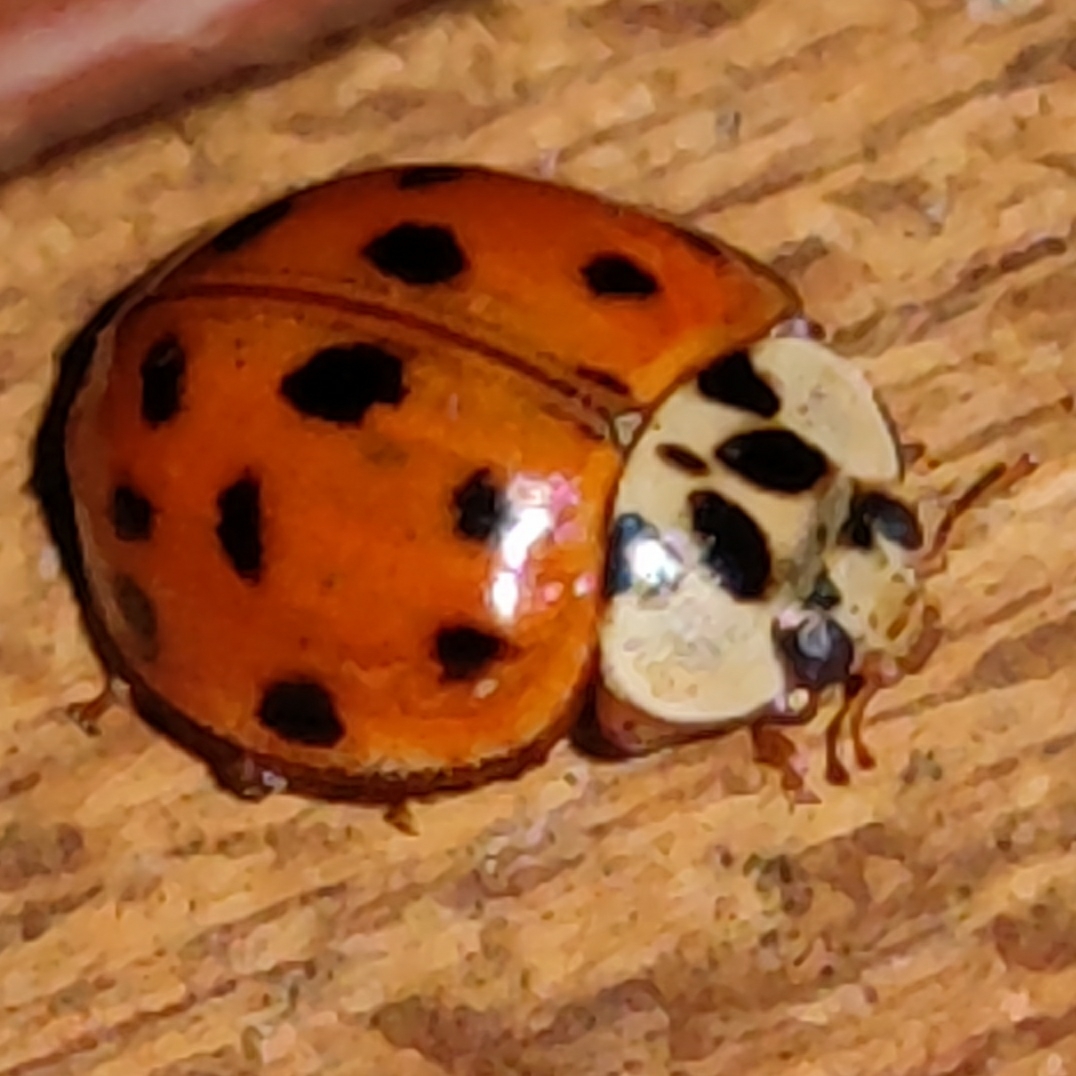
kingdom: Animalia
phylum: Arthropoda
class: Insecta
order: Coleoptera
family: Coccinellidae
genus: Harmonia
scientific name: Harmonia axyridis
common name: Harlequin ladybird
